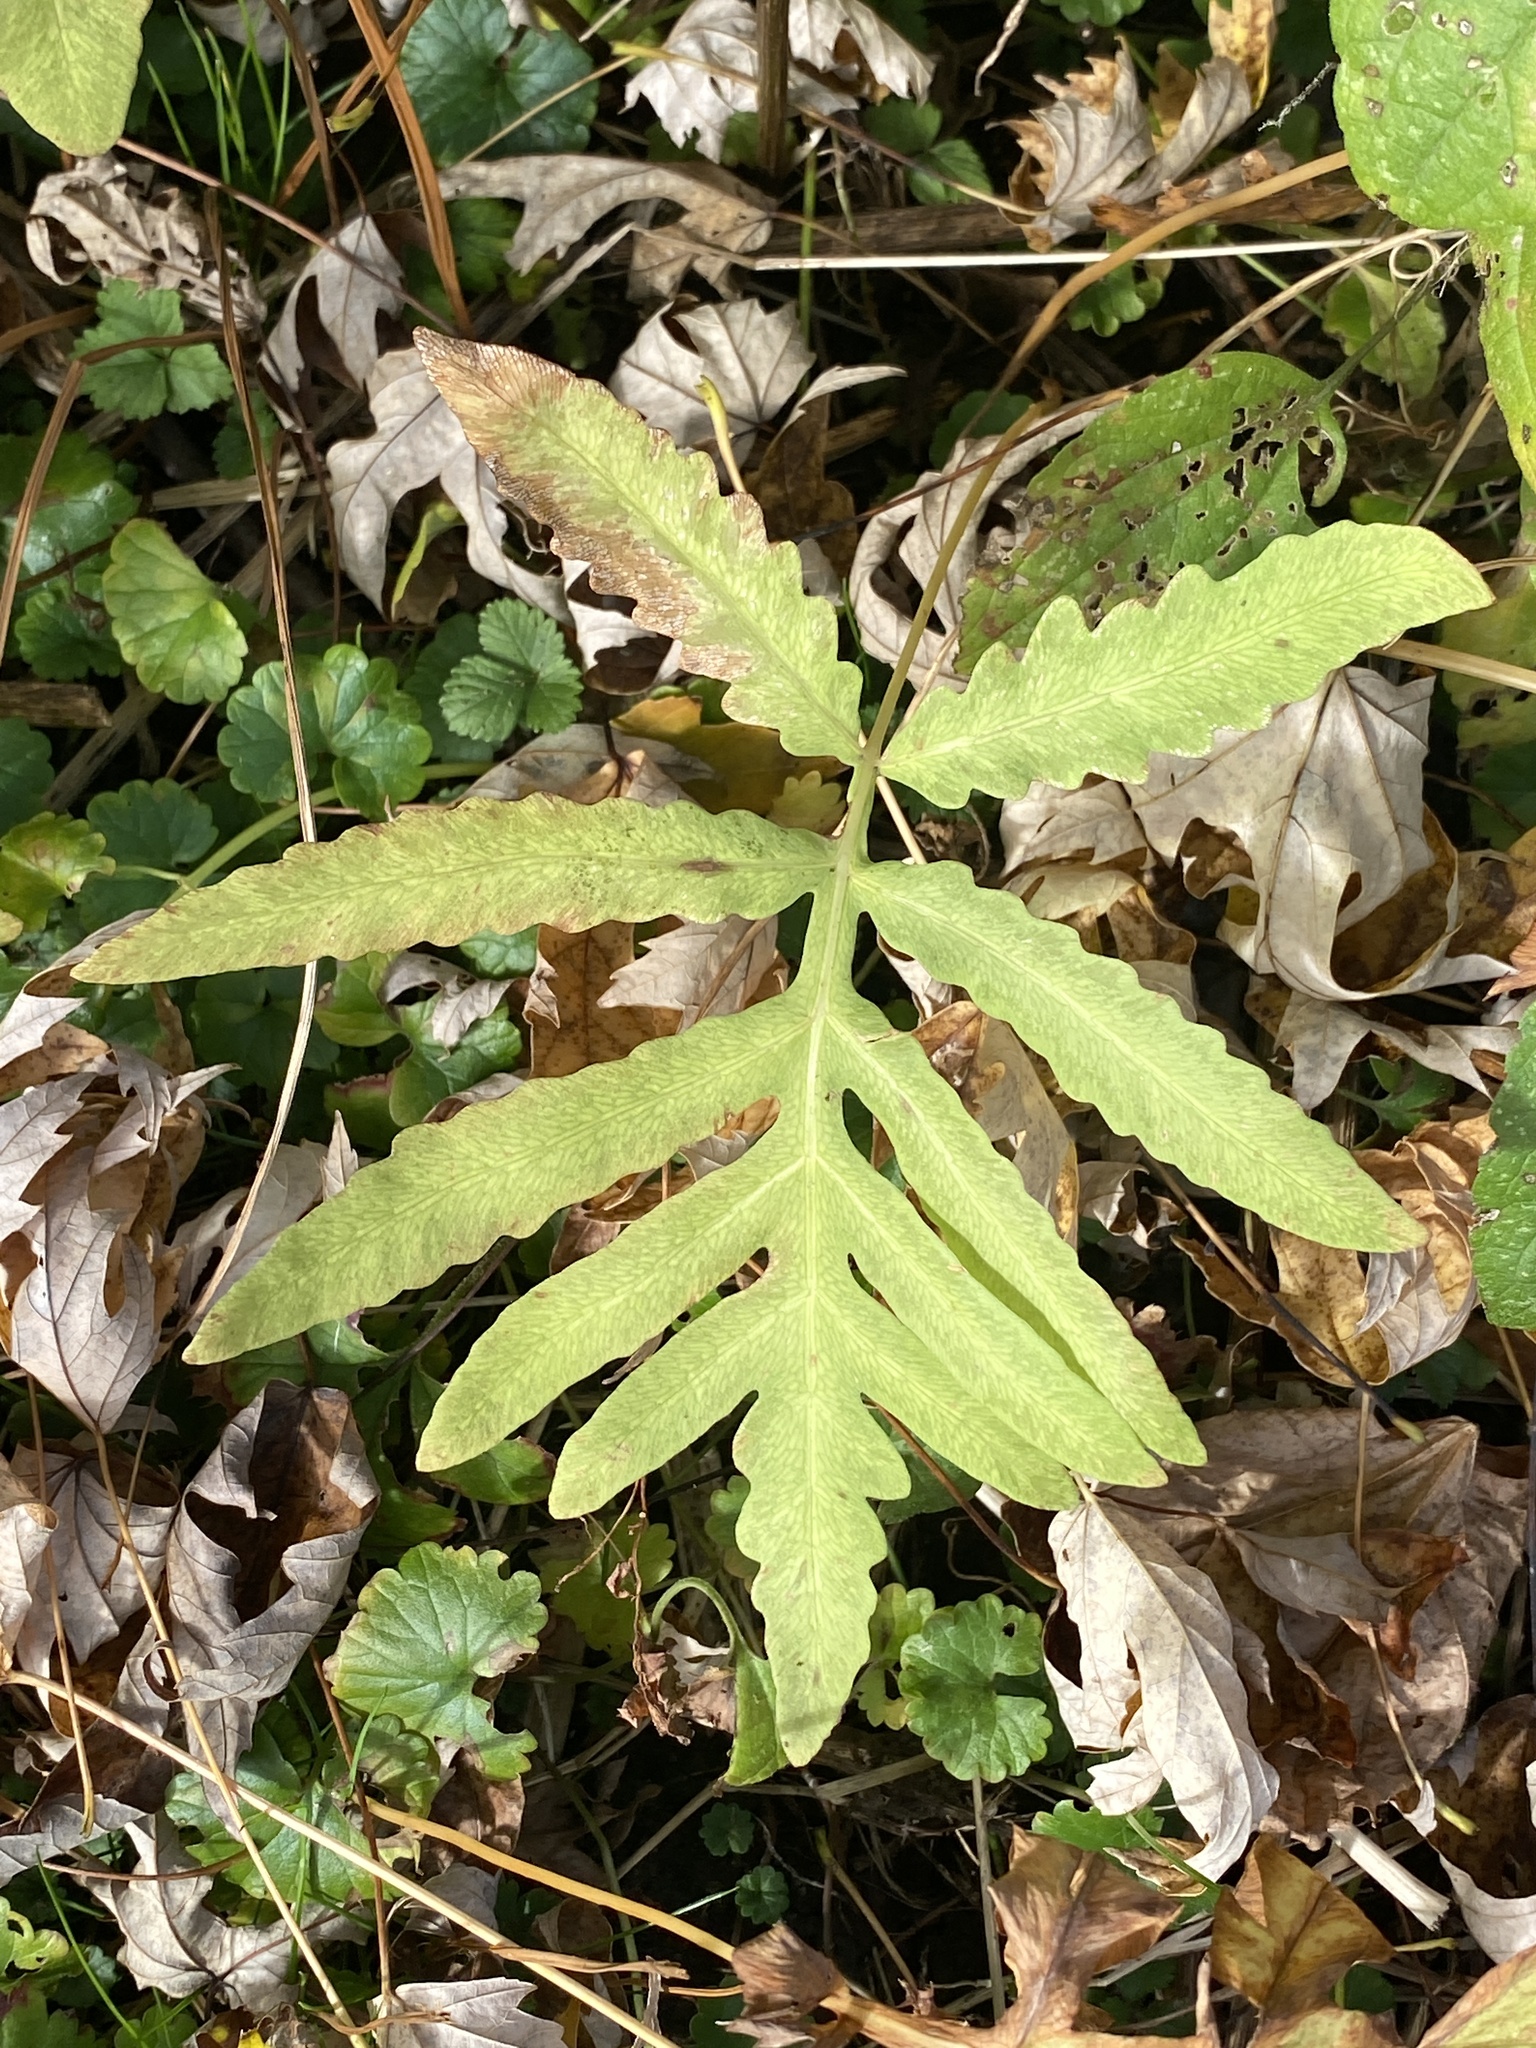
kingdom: Plantae
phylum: Tracheophyta
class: Polypodiopsida
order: Polypodiales
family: Onocleaceae
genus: Onoclea
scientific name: Onoclea sensibilis
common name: Sensitive fern
